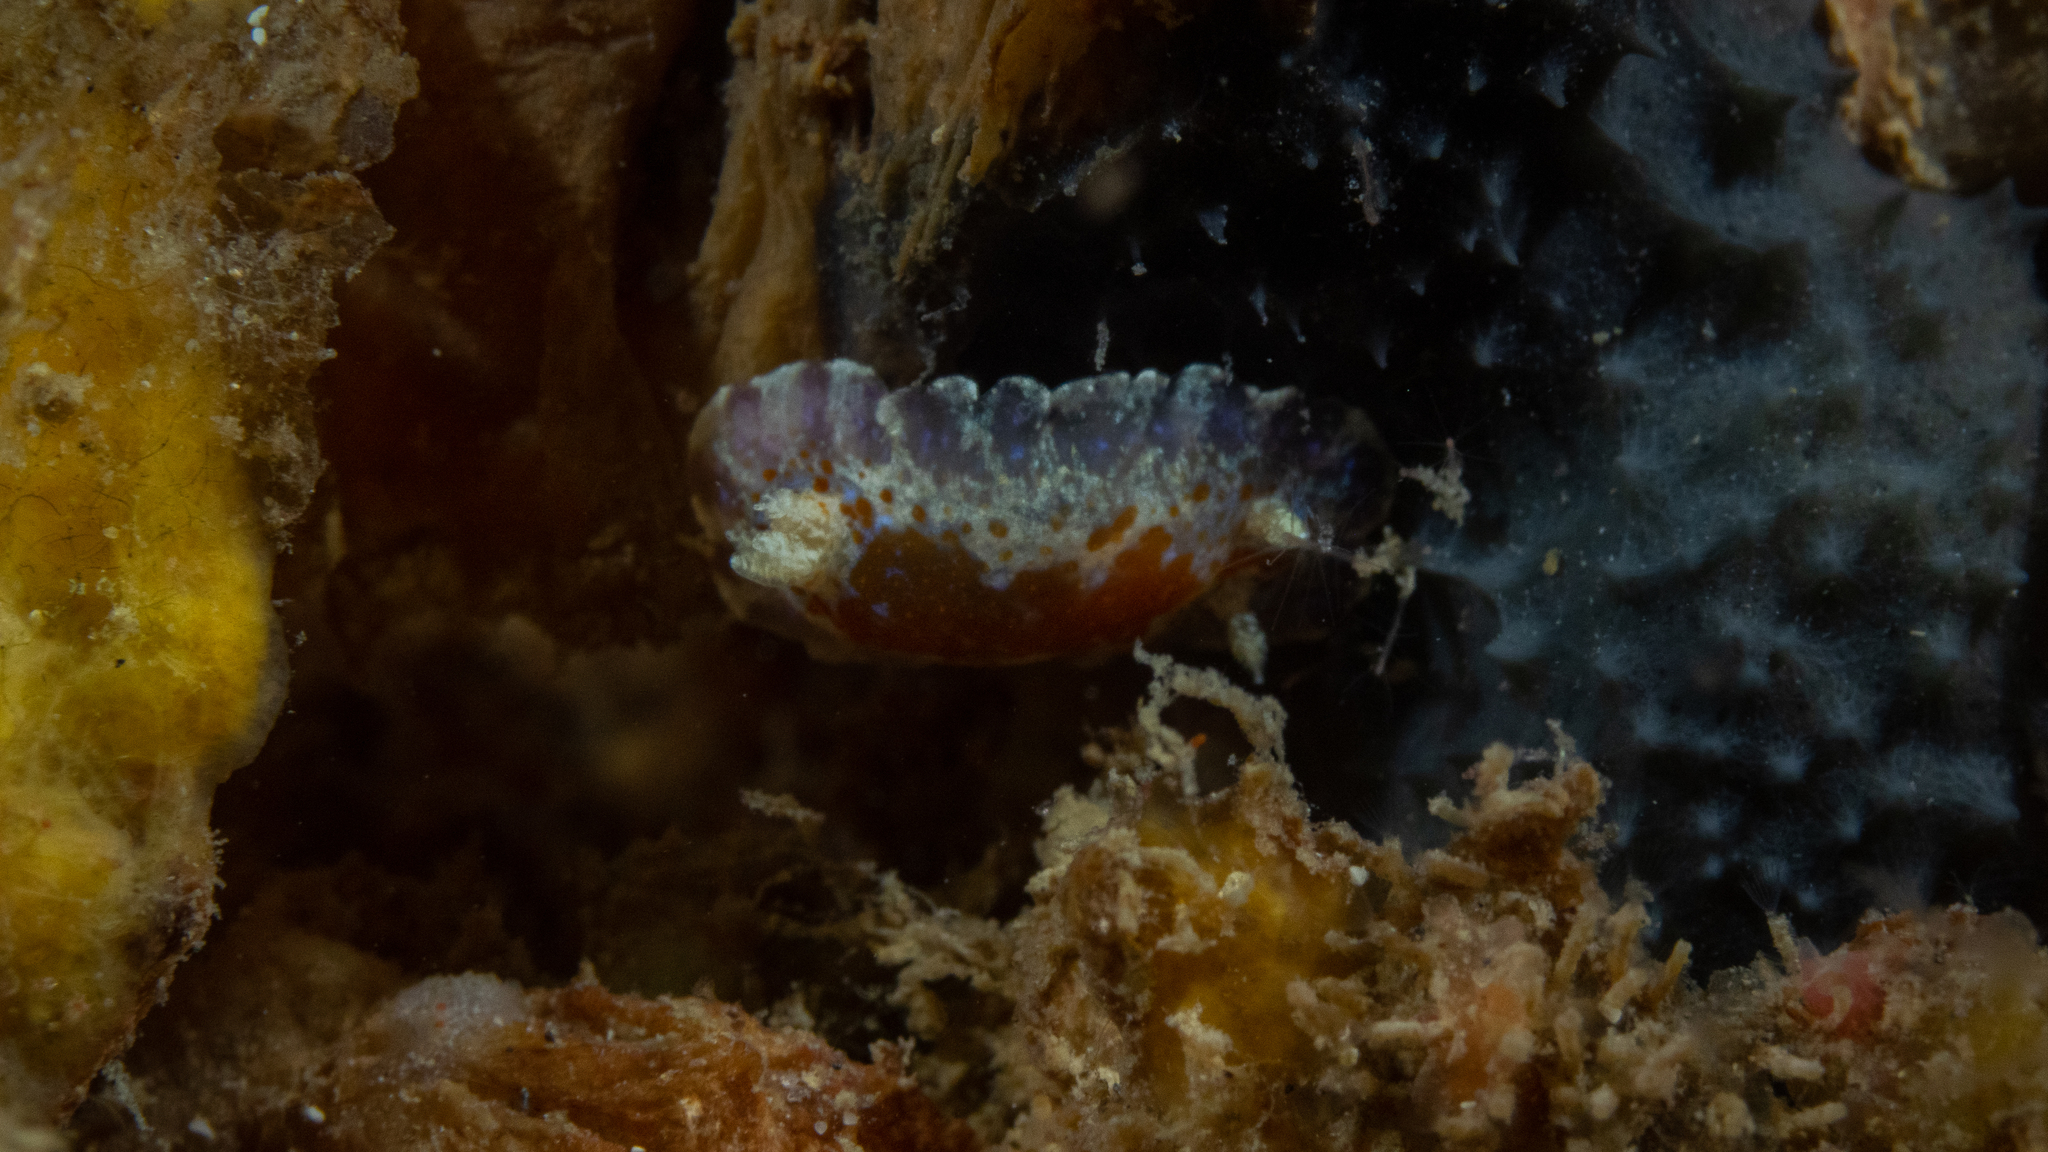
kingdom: Animalia
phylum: Mollusca
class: Gastropoda
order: Nudibranchia
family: Chromodorididae
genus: Chromodoris
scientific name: Chromodoris alternata
